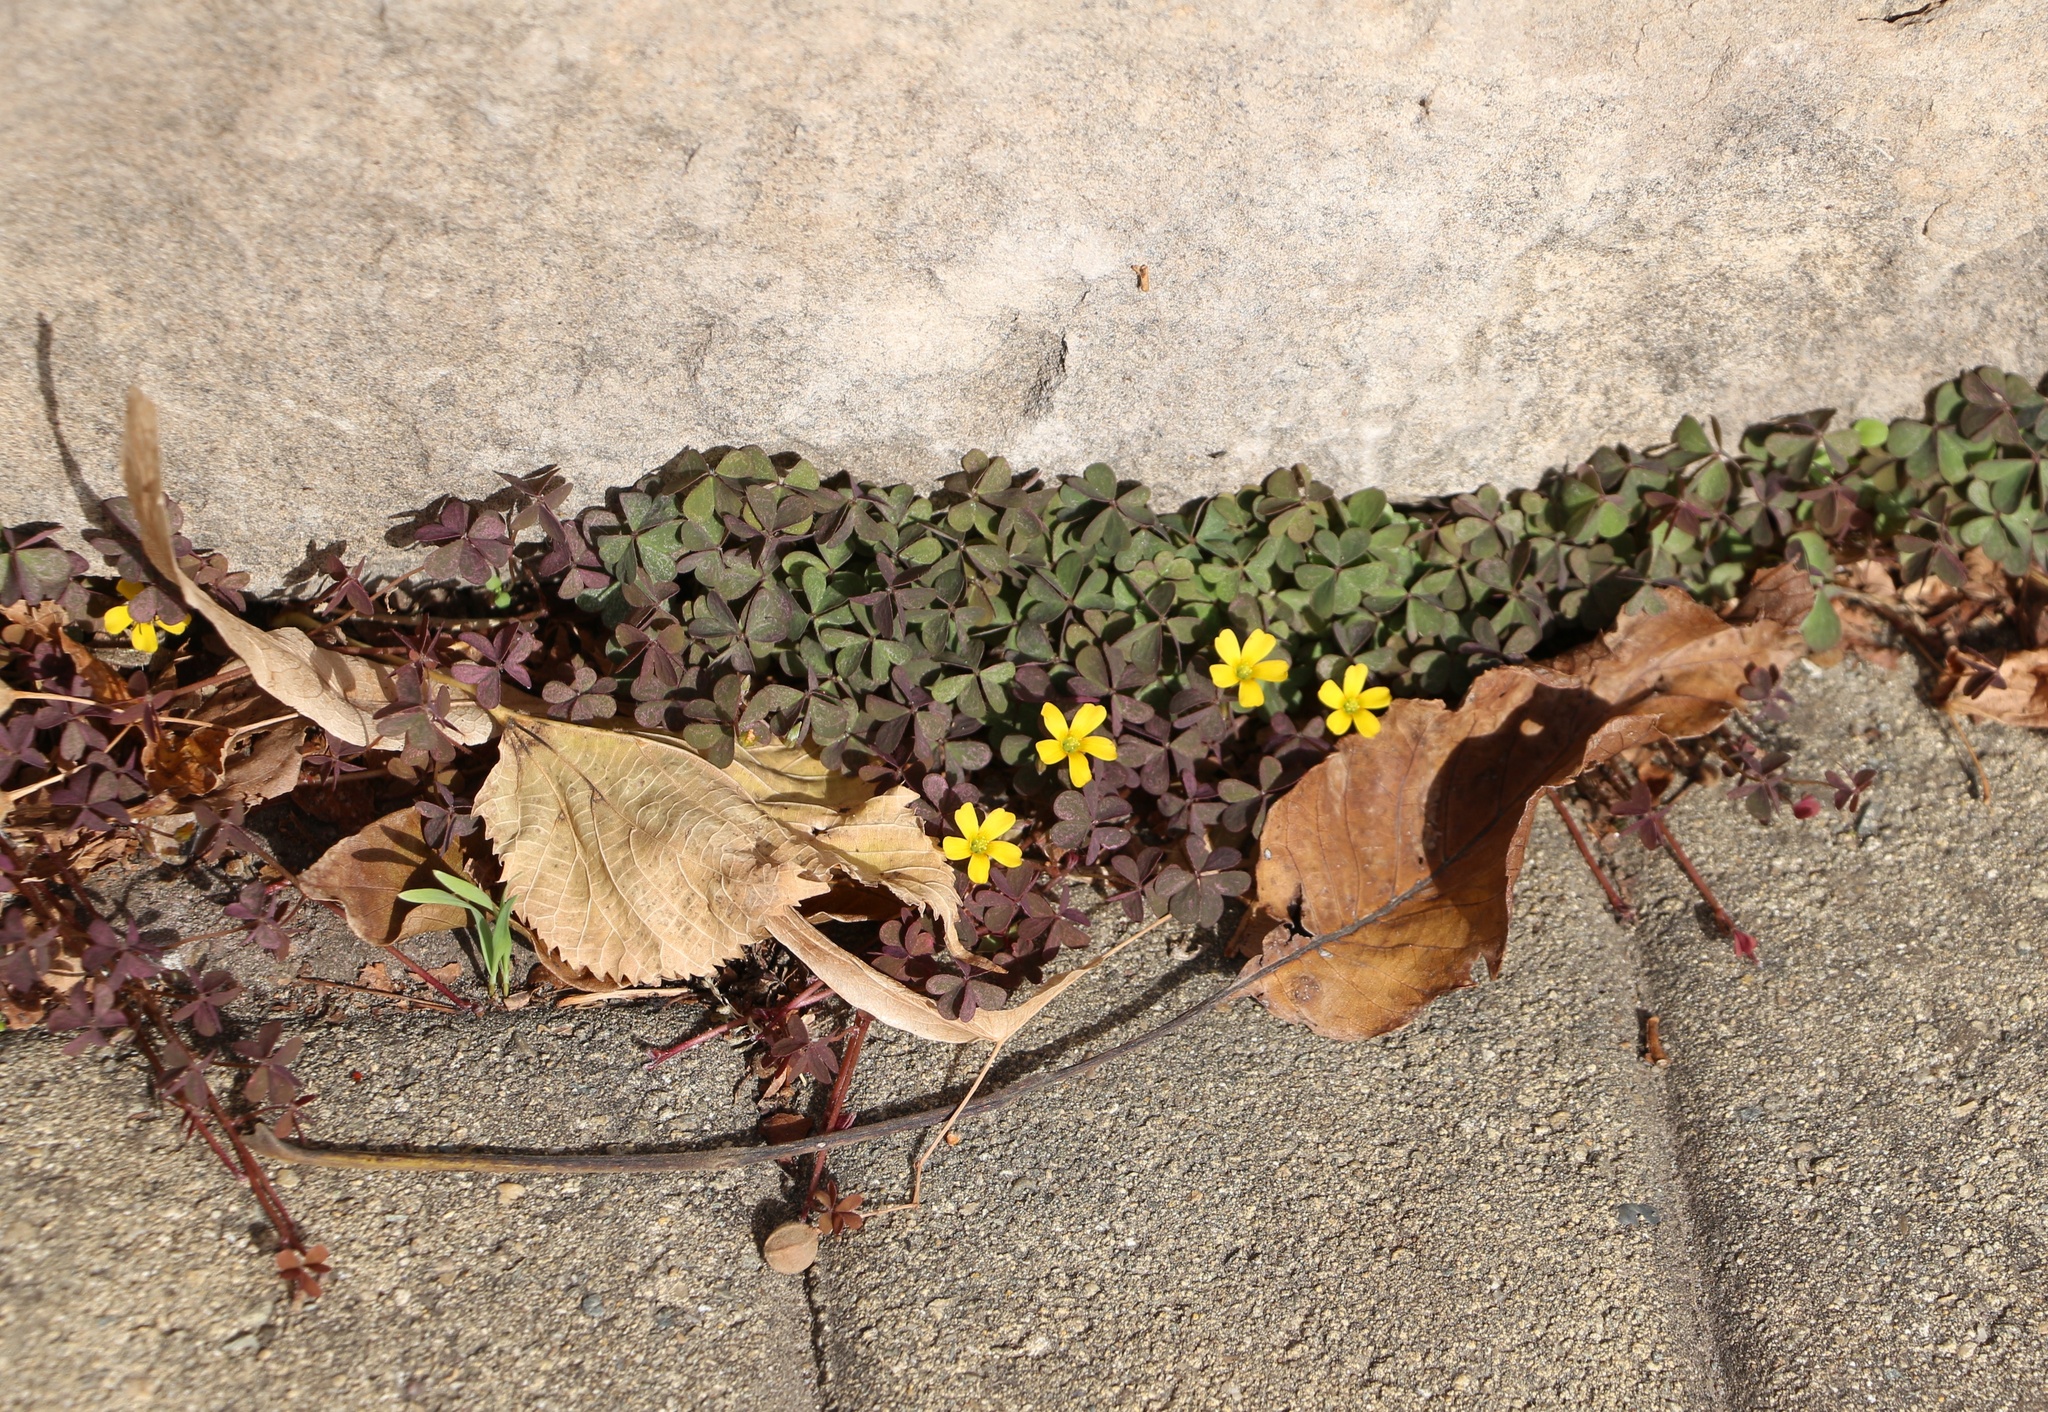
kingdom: Plantae
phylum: Tracheophyta
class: Magnoliopsida
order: Oxalidales
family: Oxalidaceae
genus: Oxalis
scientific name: Oxalis corniculata
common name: Procumbent yellow-sorrel
